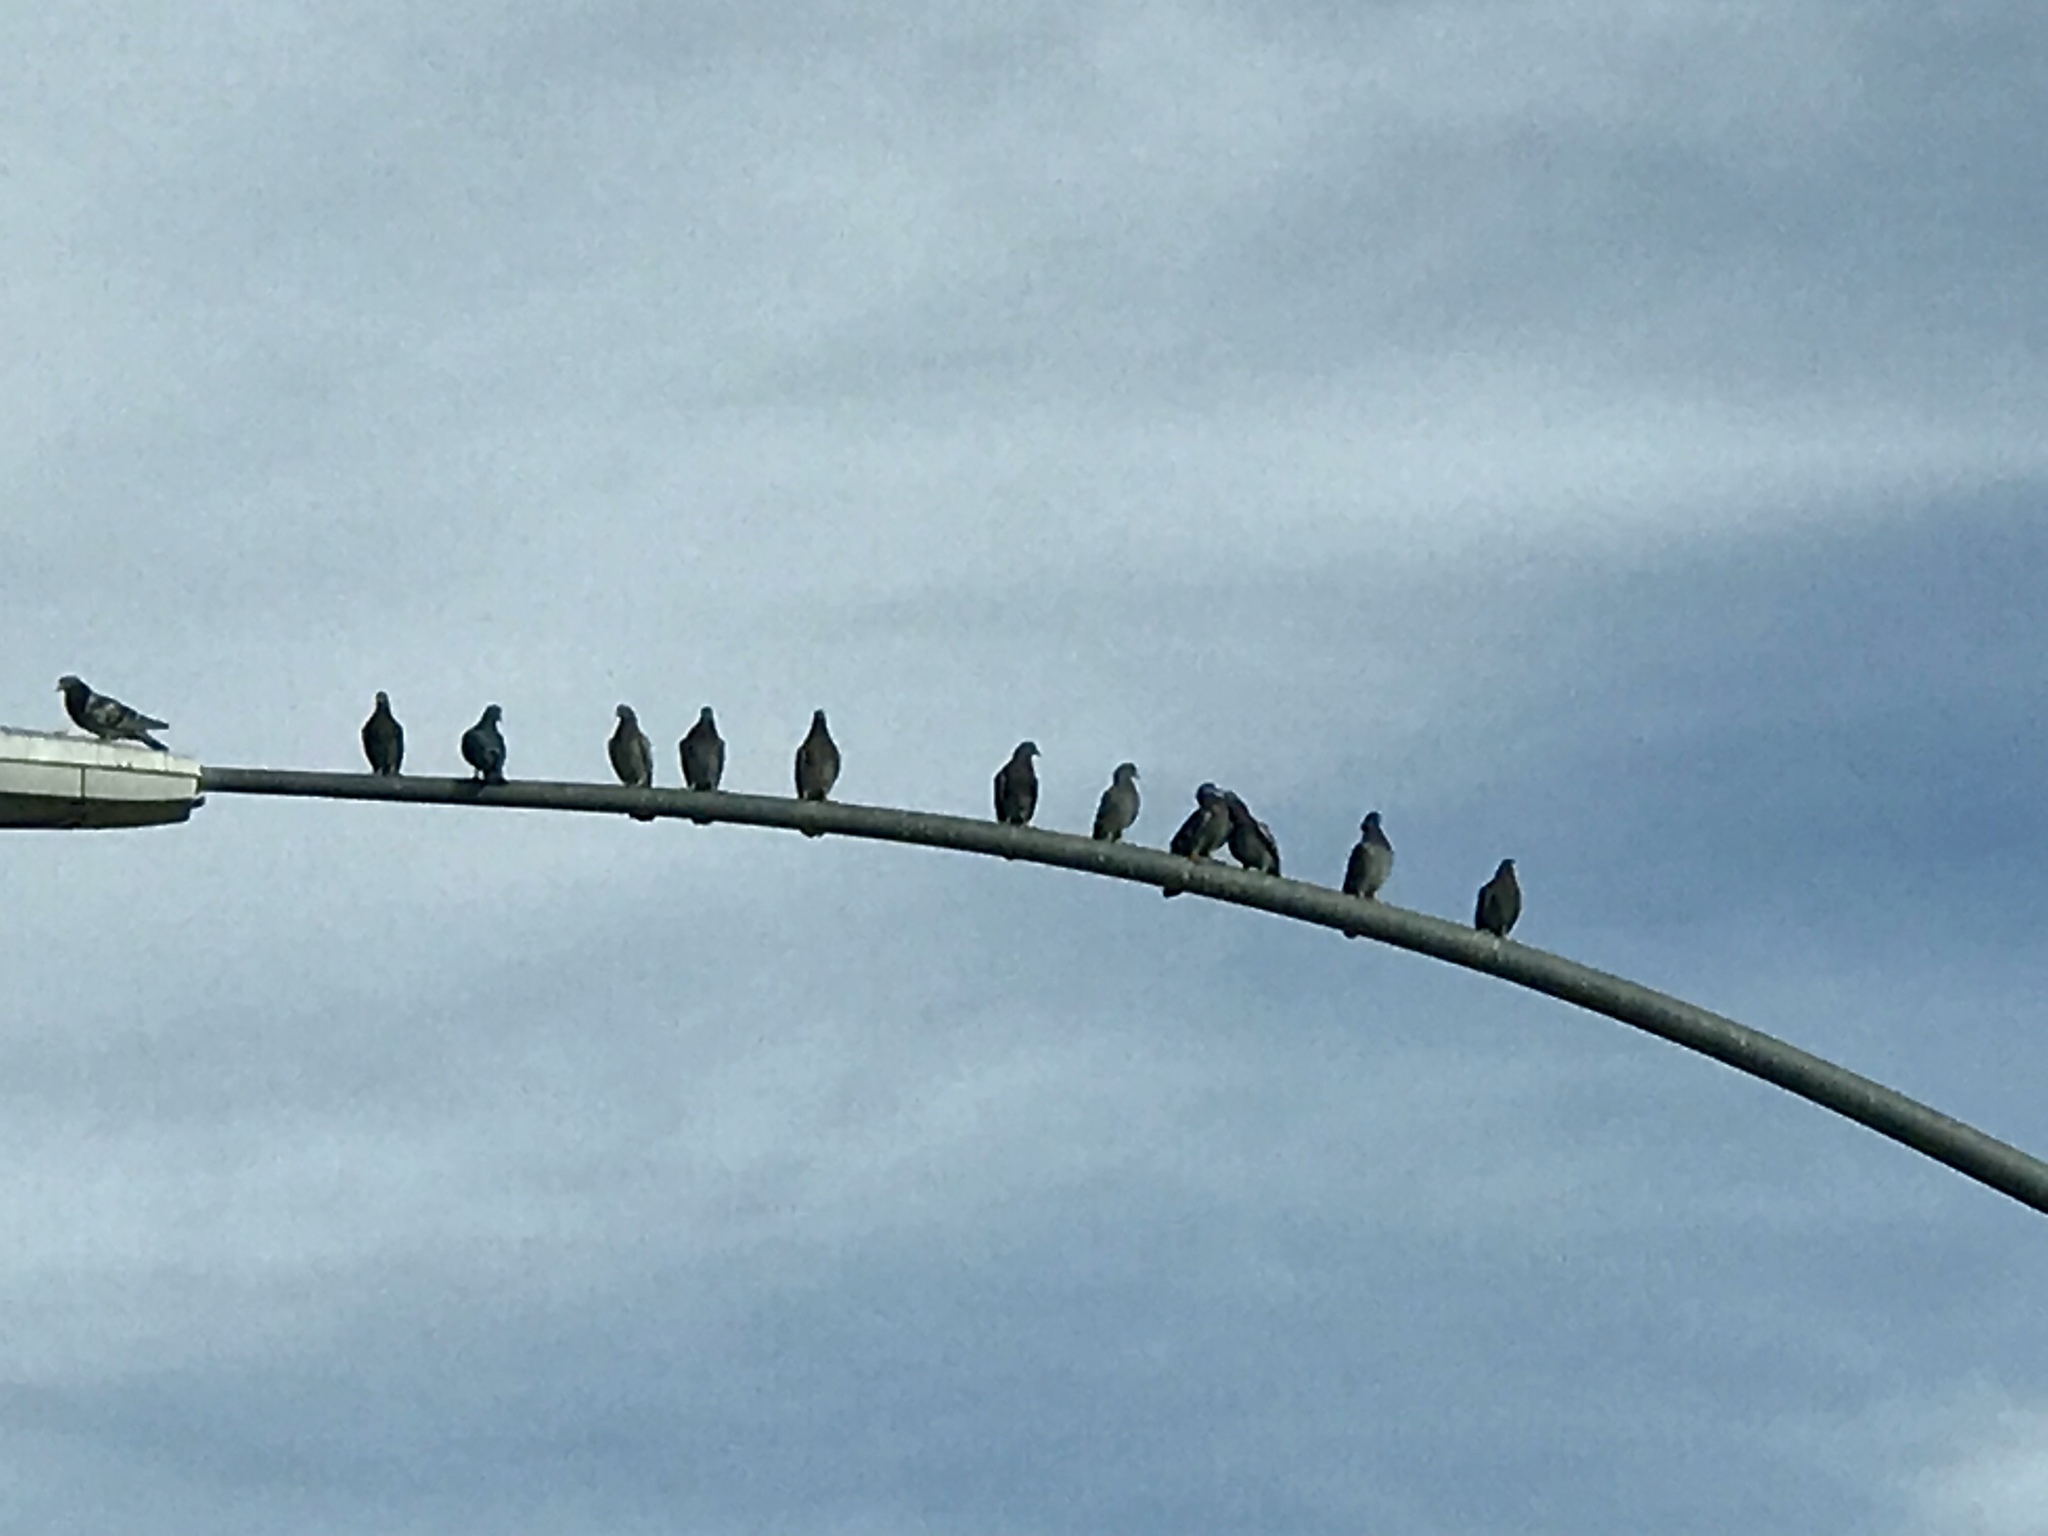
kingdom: Animalia
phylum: Chordata
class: Aves
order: Columbiformes
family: Columbidae
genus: Columba
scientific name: Columba livia
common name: Rock pigeon
